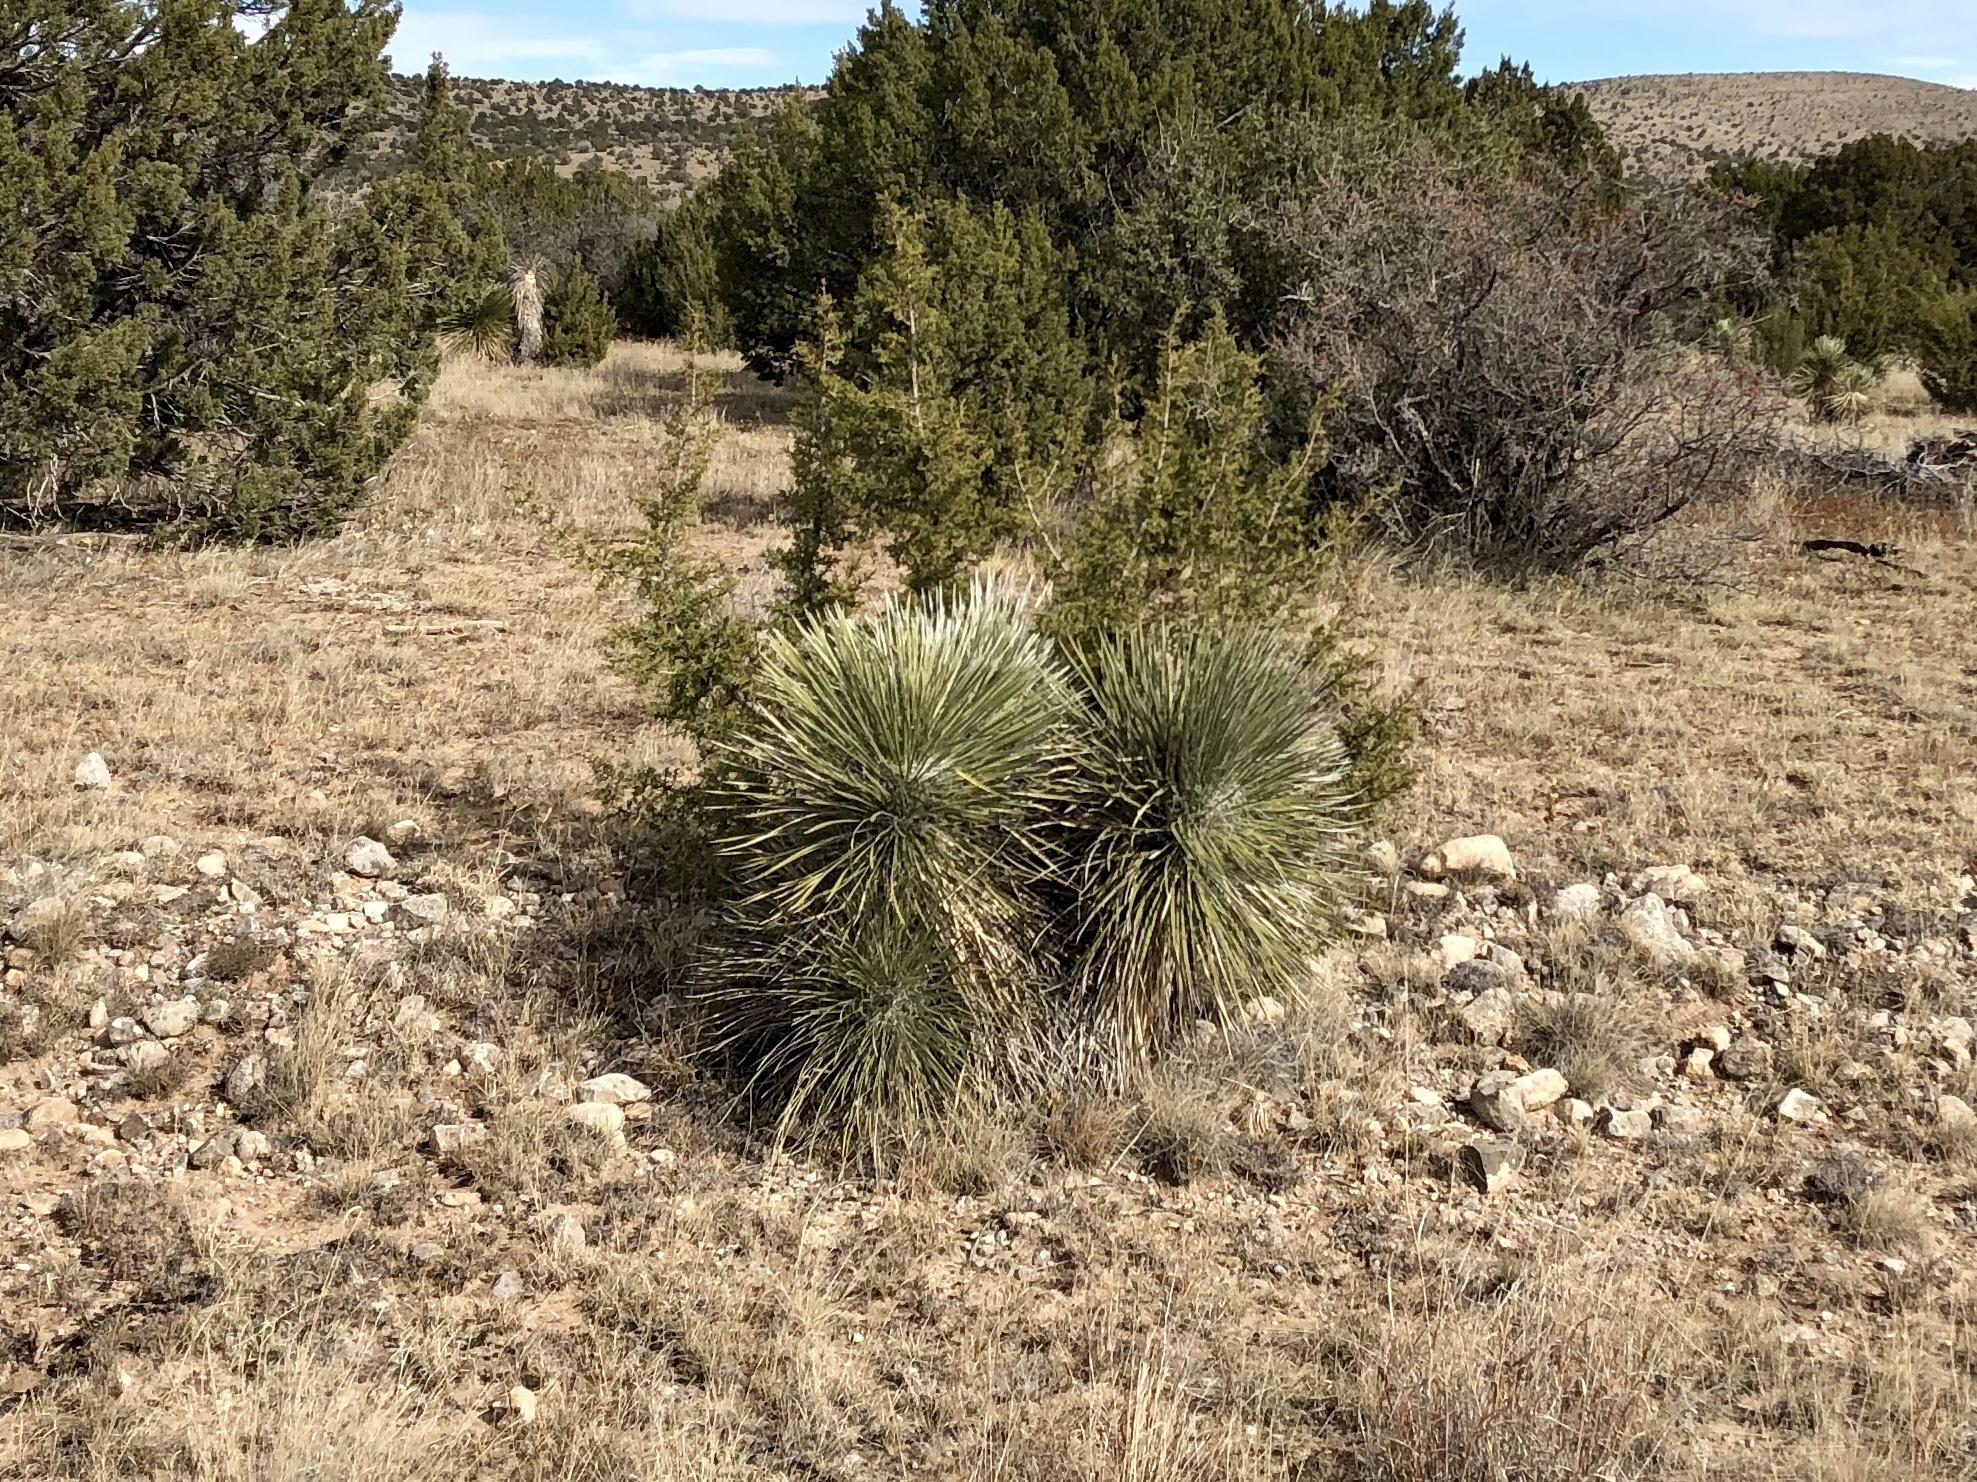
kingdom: Plantae
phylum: Tracheophyta
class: Liliopsida
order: Asparagales
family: Asparagaceae
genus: Yucca
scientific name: Yucca elata
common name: Palmella
